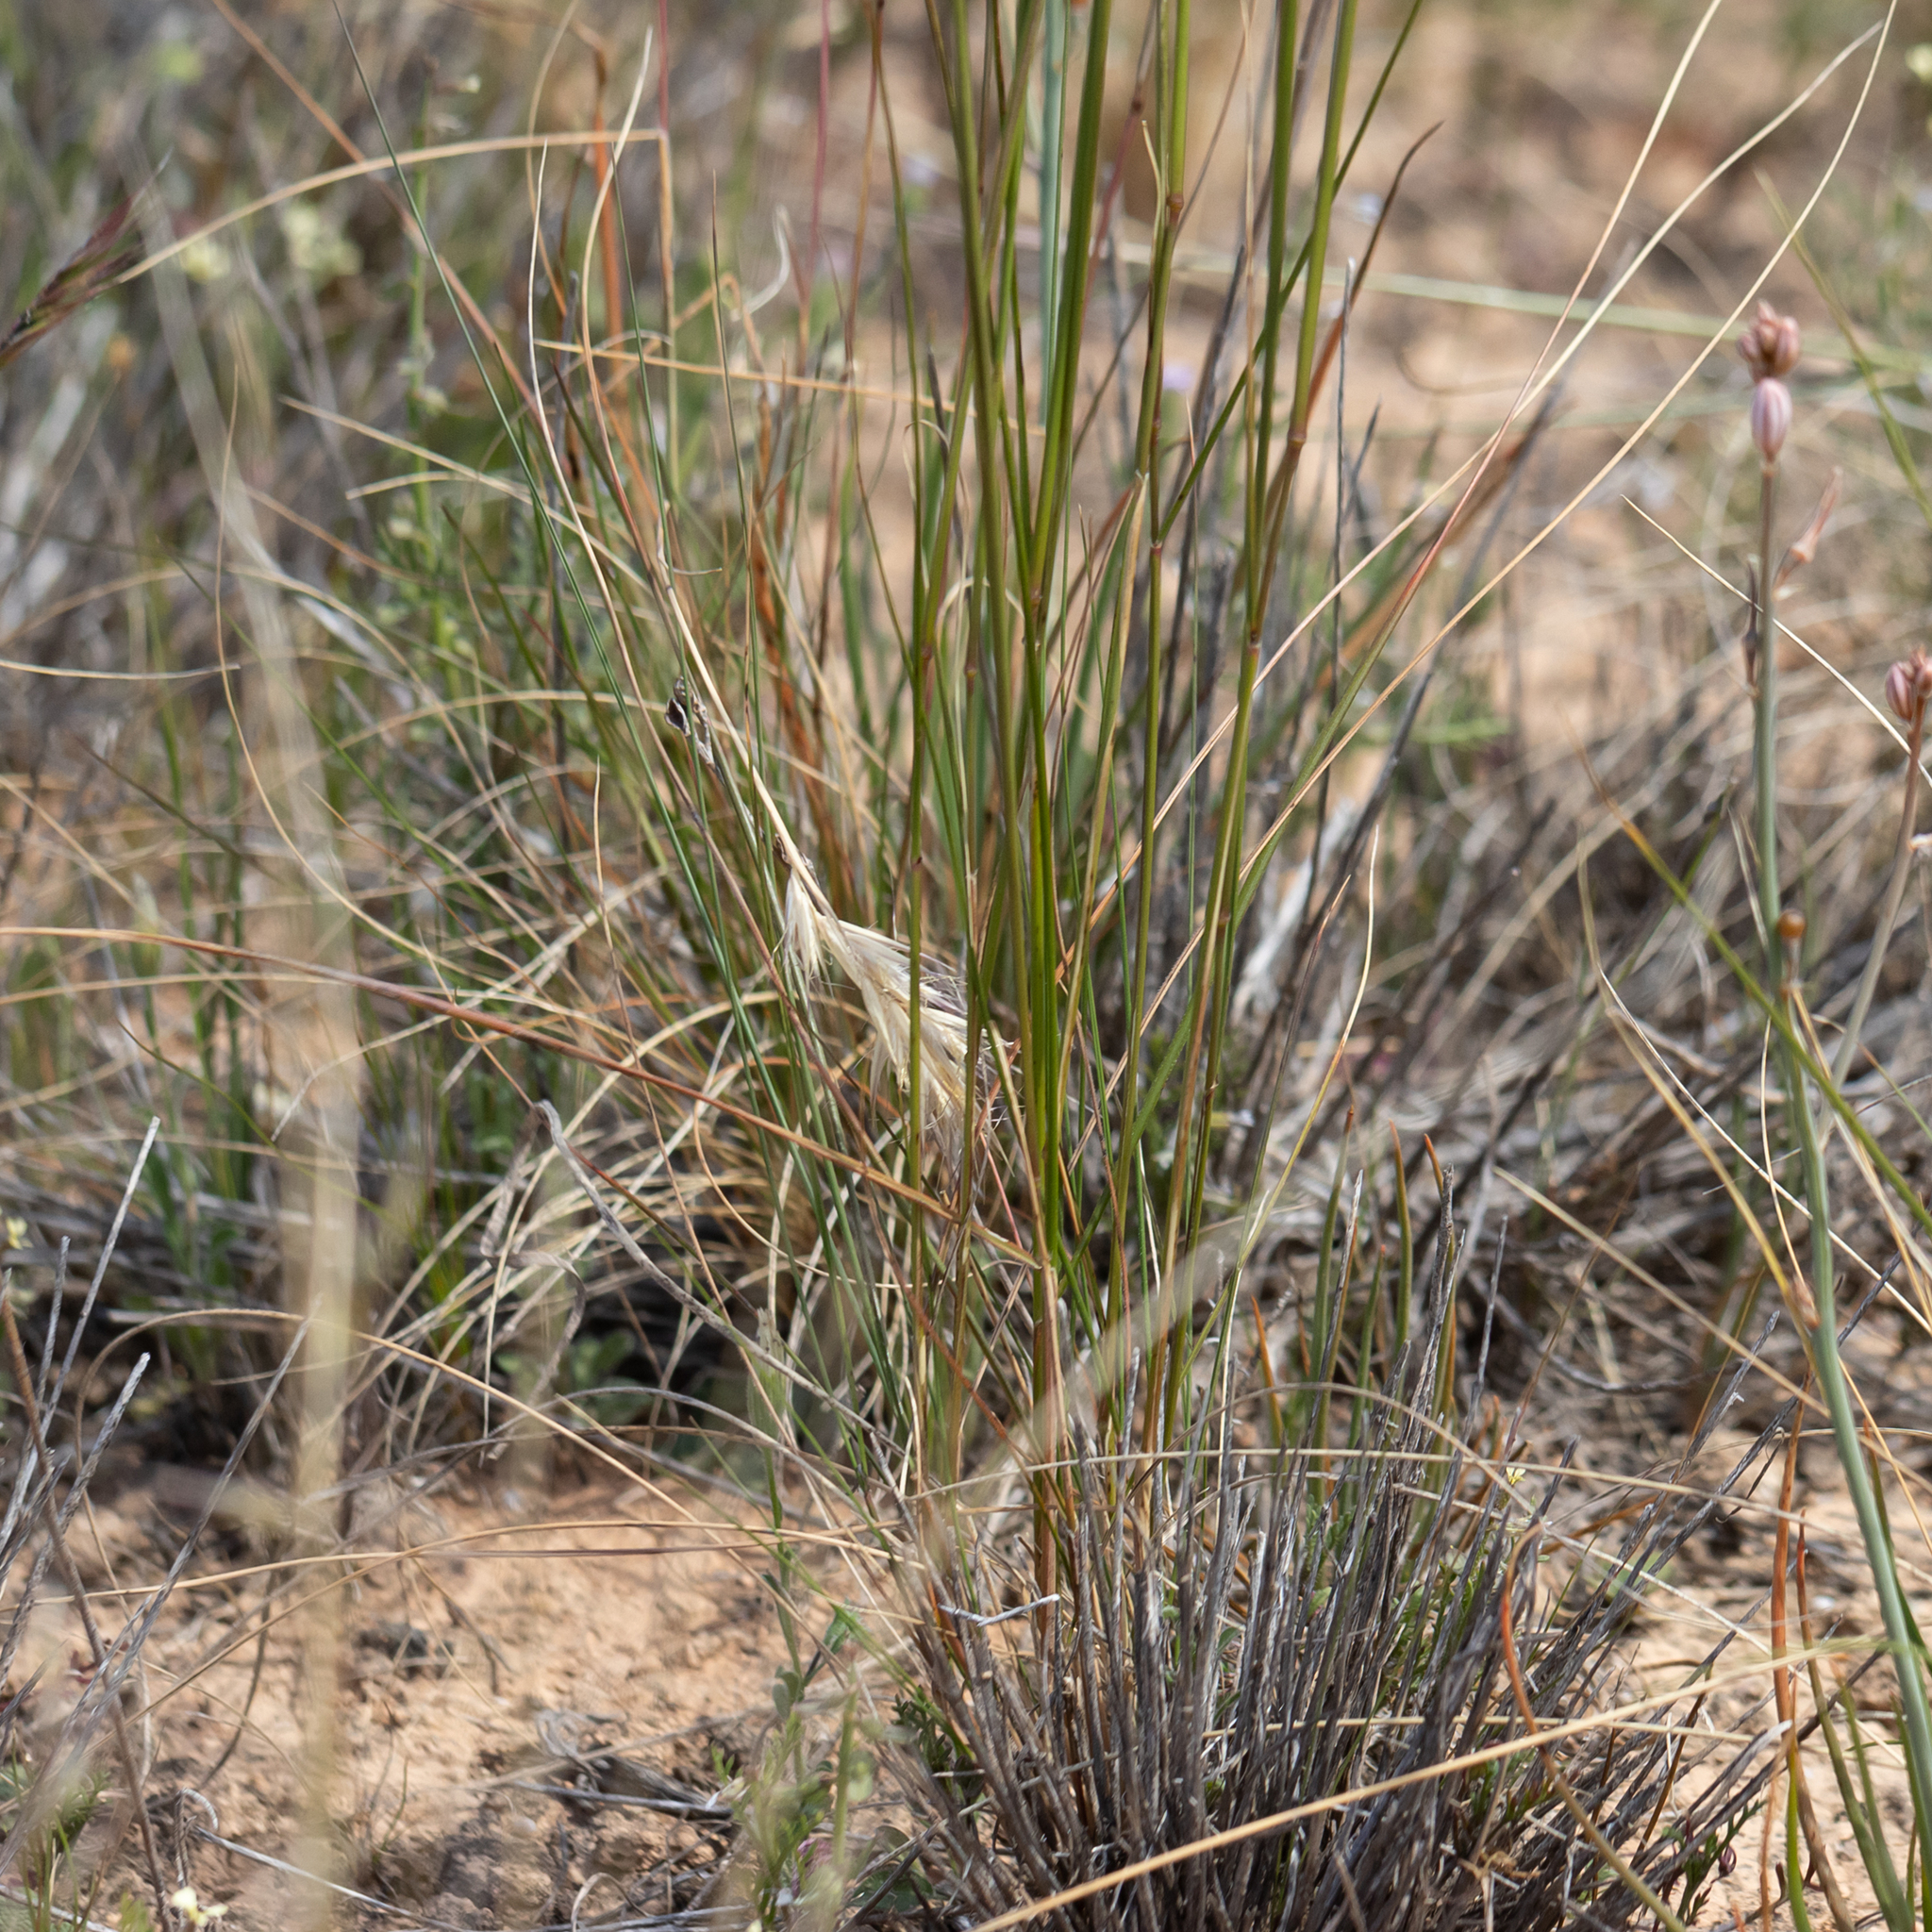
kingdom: Plantae
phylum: Tracheophyta
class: Liliopsida
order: Poales
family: Poaceae
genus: Austrostipa
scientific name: Austrostipa eremophila
